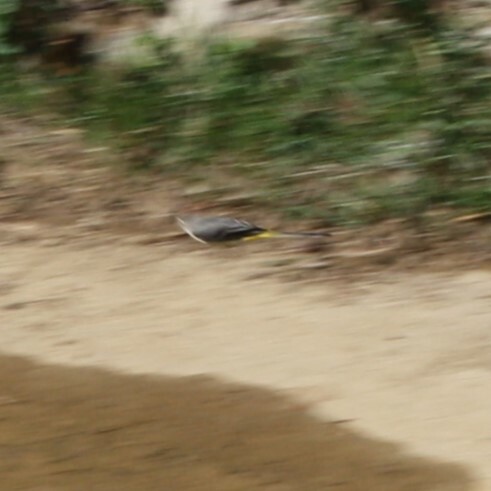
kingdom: Animalia
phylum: Chordata
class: Aves
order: Passeriformes
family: Motacillidae
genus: Motacilla
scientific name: Motacilla cinerea
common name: Grey wagtail
